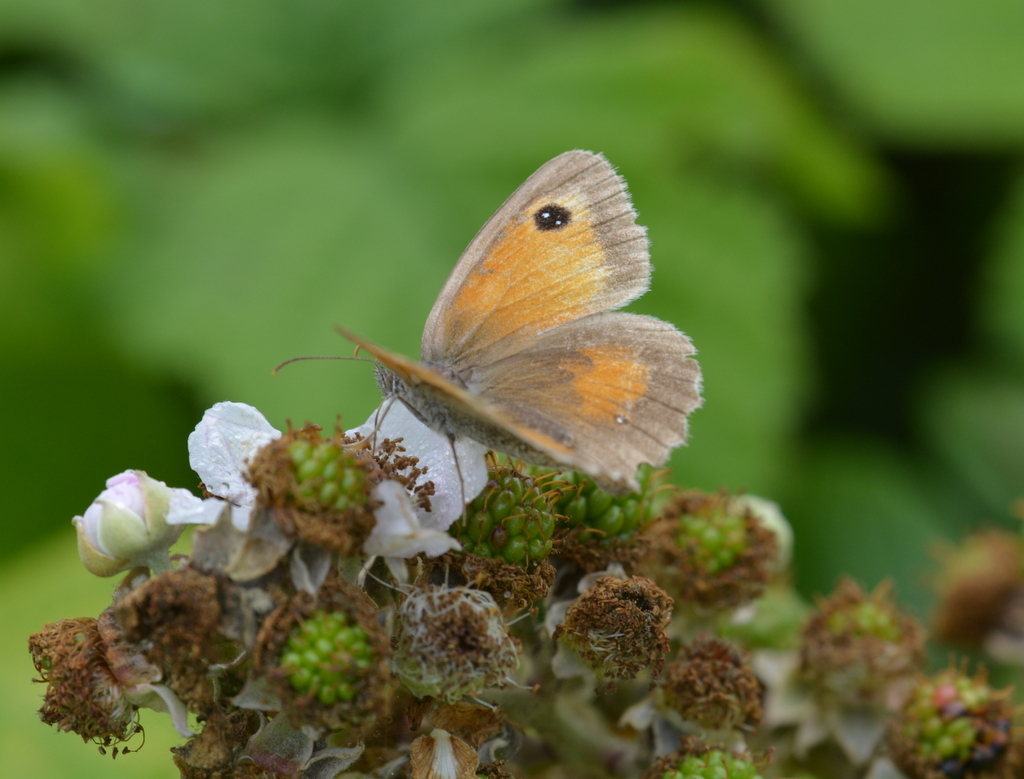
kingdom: Animalia
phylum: Arthropoda
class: Insecta
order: Lepidoptera
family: Nymphalidae
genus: Pyronia
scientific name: Pyronia tithonus
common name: Gatekeeper
